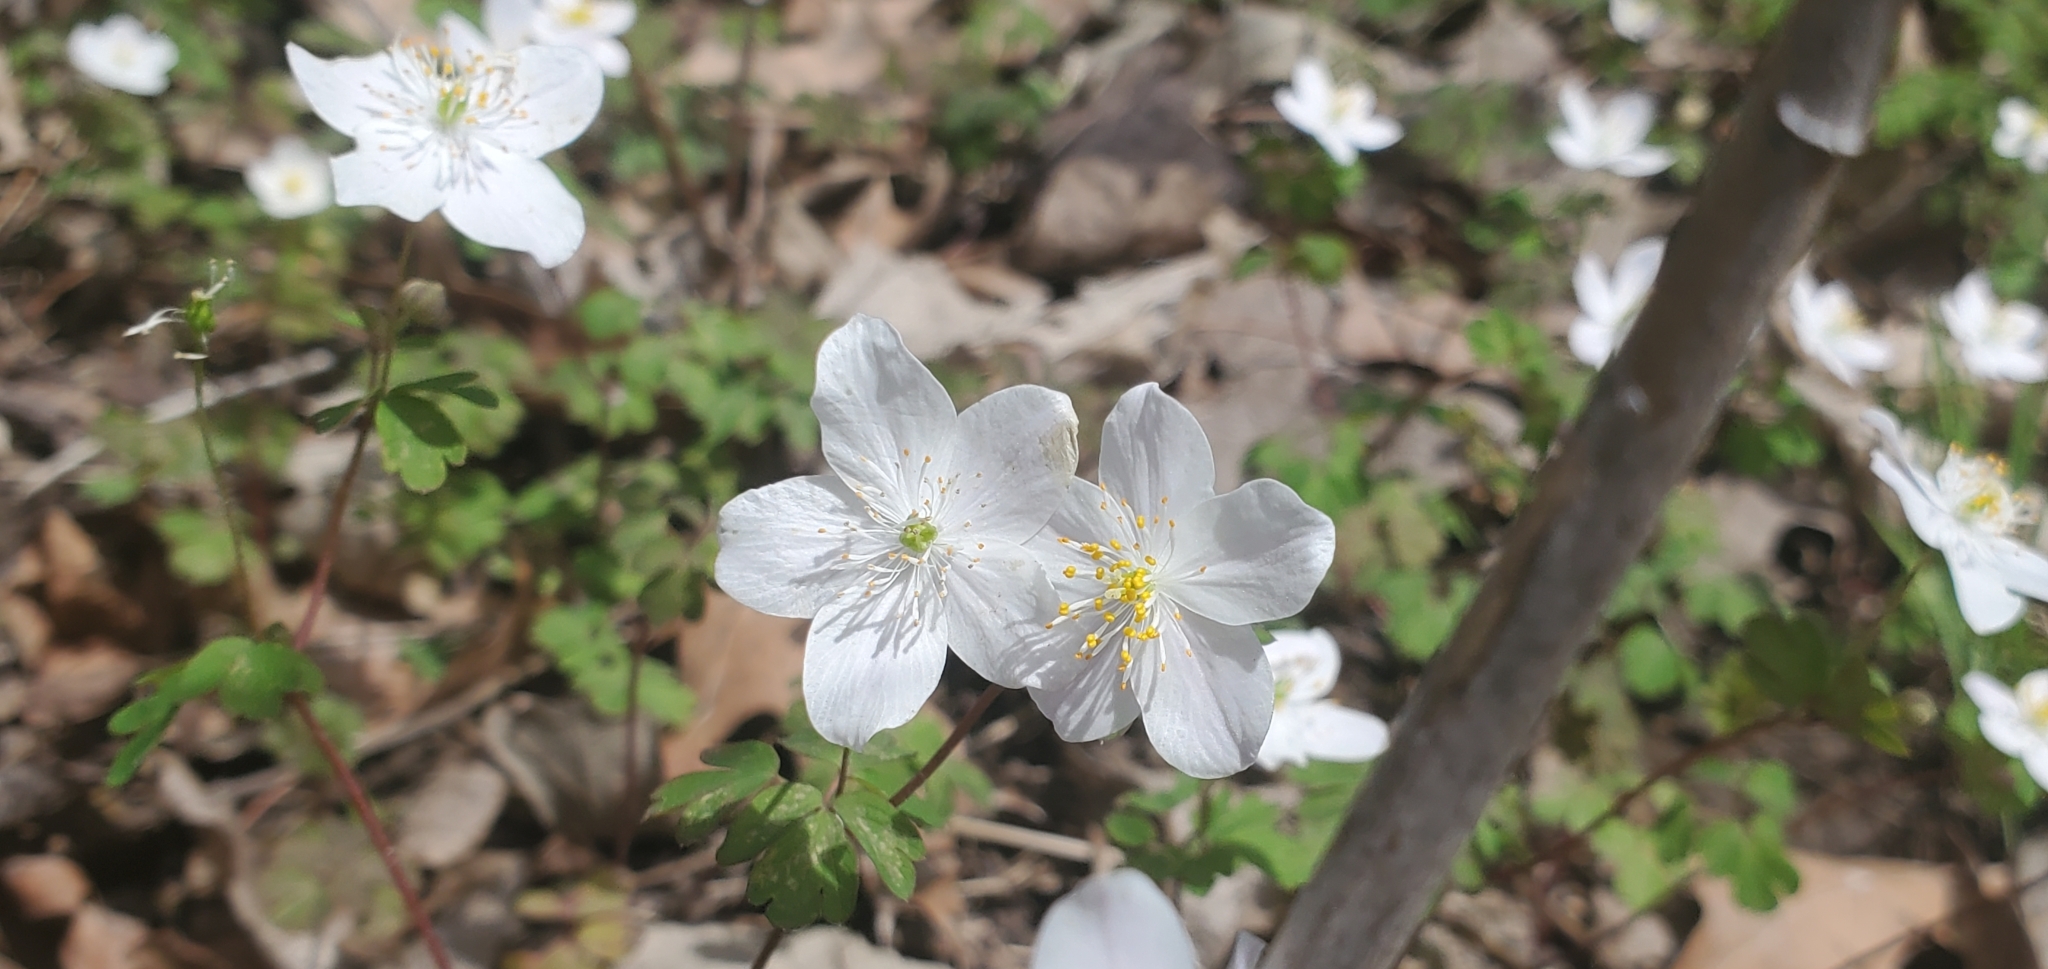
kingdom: Plantae
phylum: Tracheophyta
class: Magnoliopsida
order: Ranunculales
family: Ranunculaceae
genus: Enemion
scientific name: Enemion biternatum
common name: Eastern false rue-anemone
